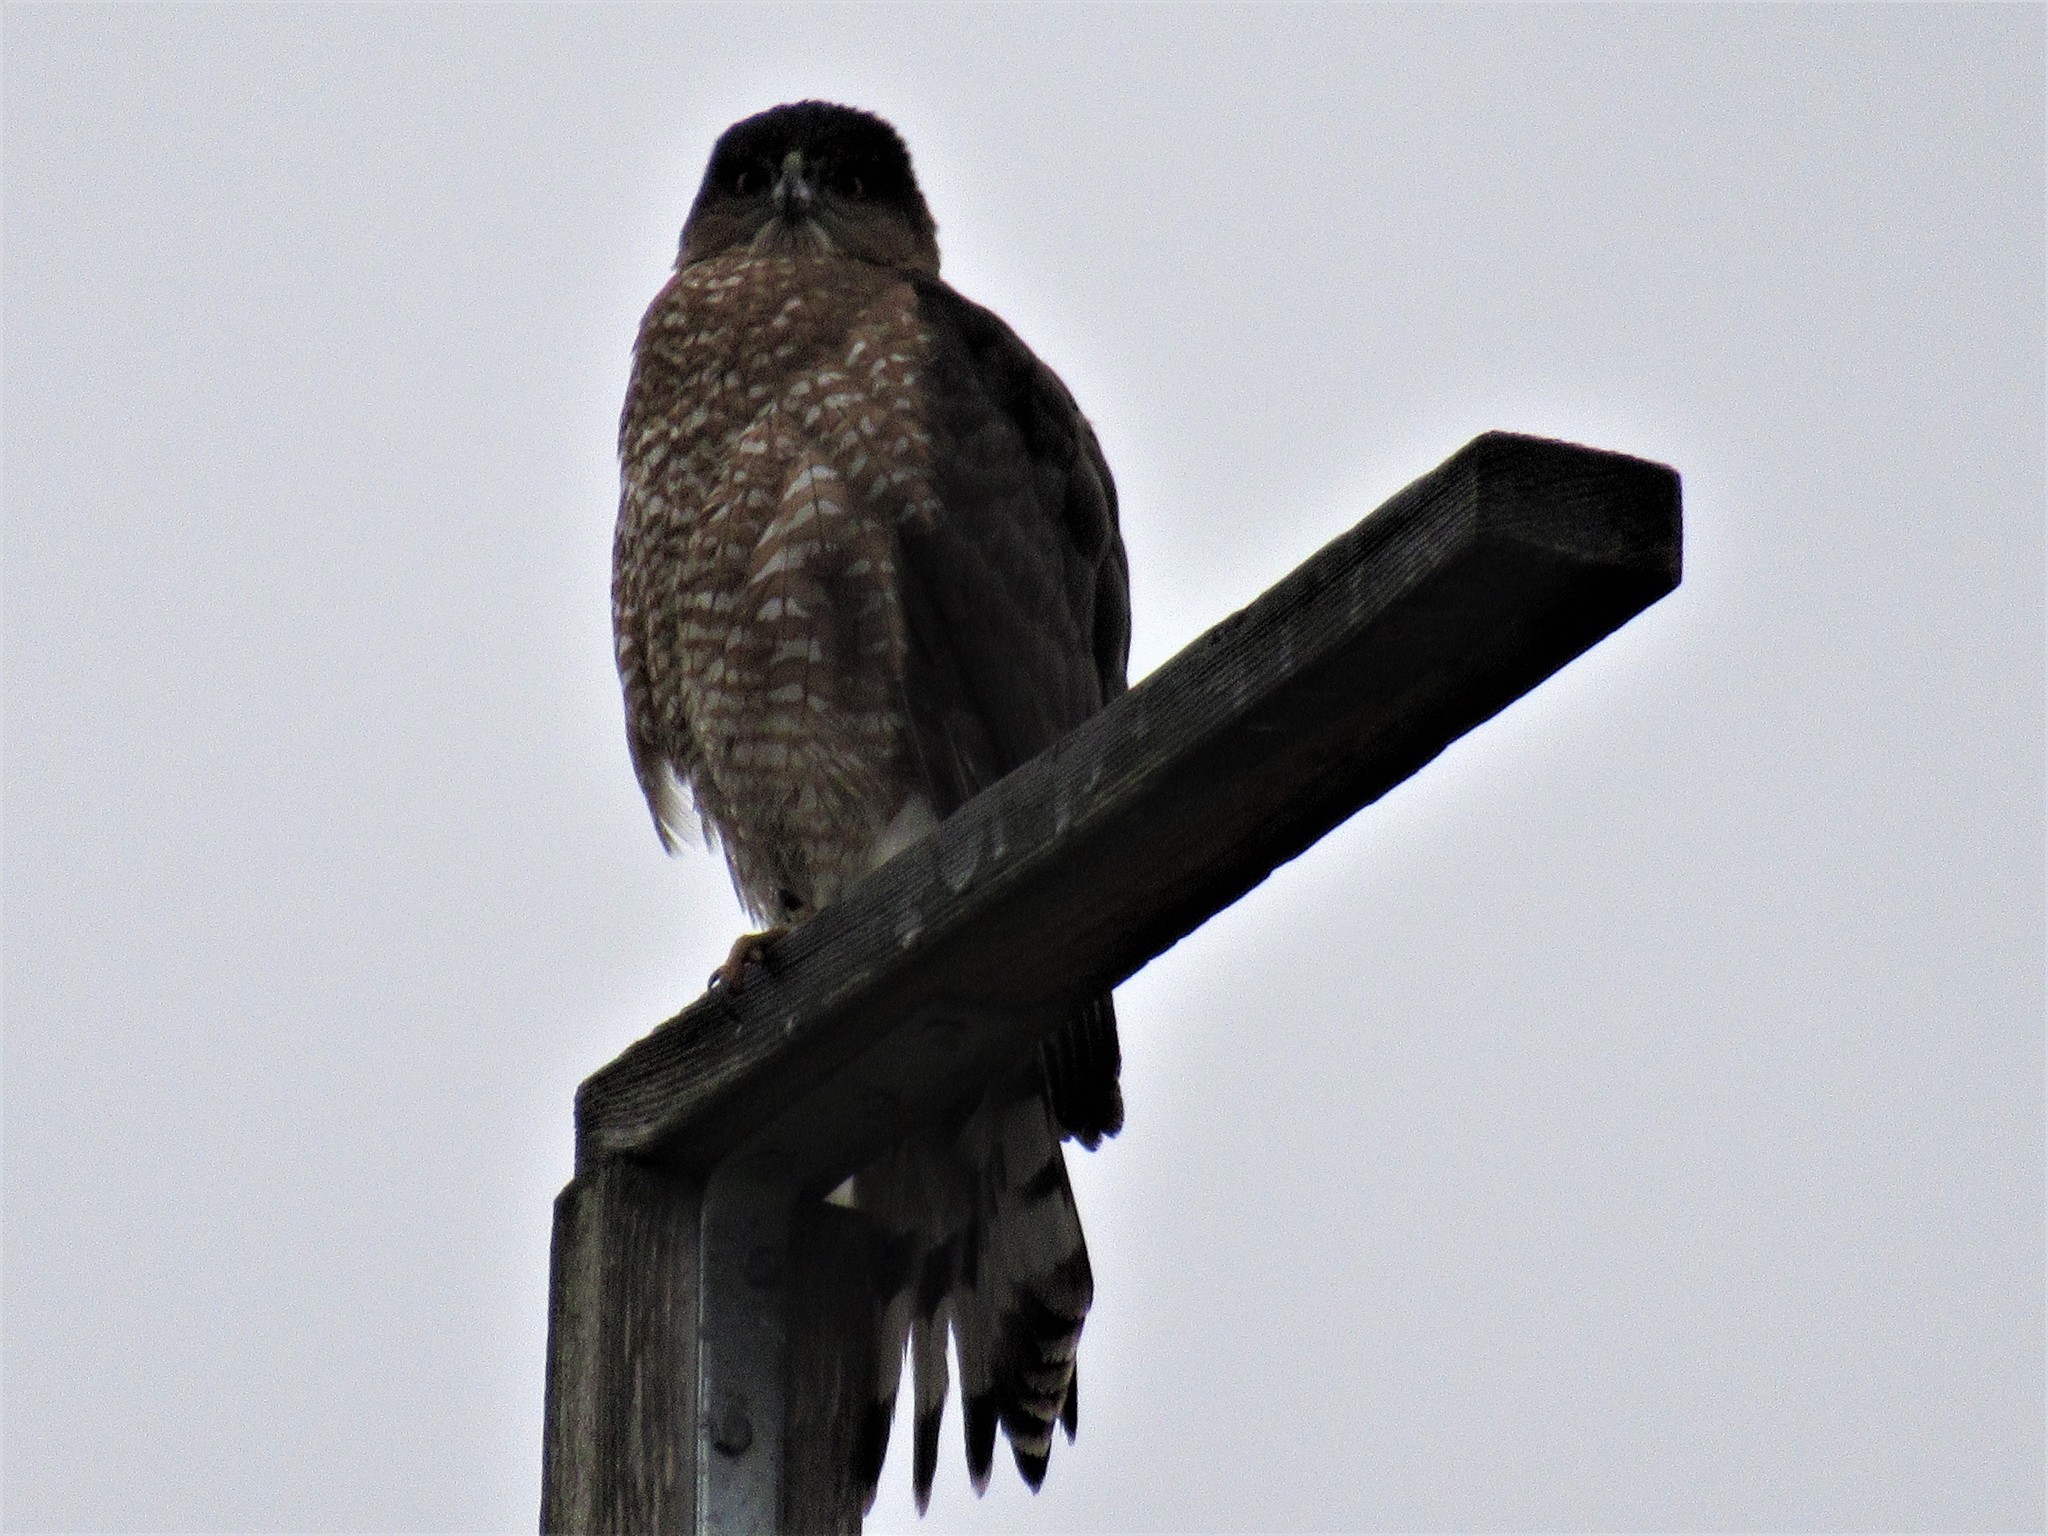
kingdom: Animalia
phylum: Chordata
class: Aves
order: Accipitriformes
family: Accipitridae
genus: Accipiter
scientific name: Accipiter cooperii
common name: Cooper's hawk
